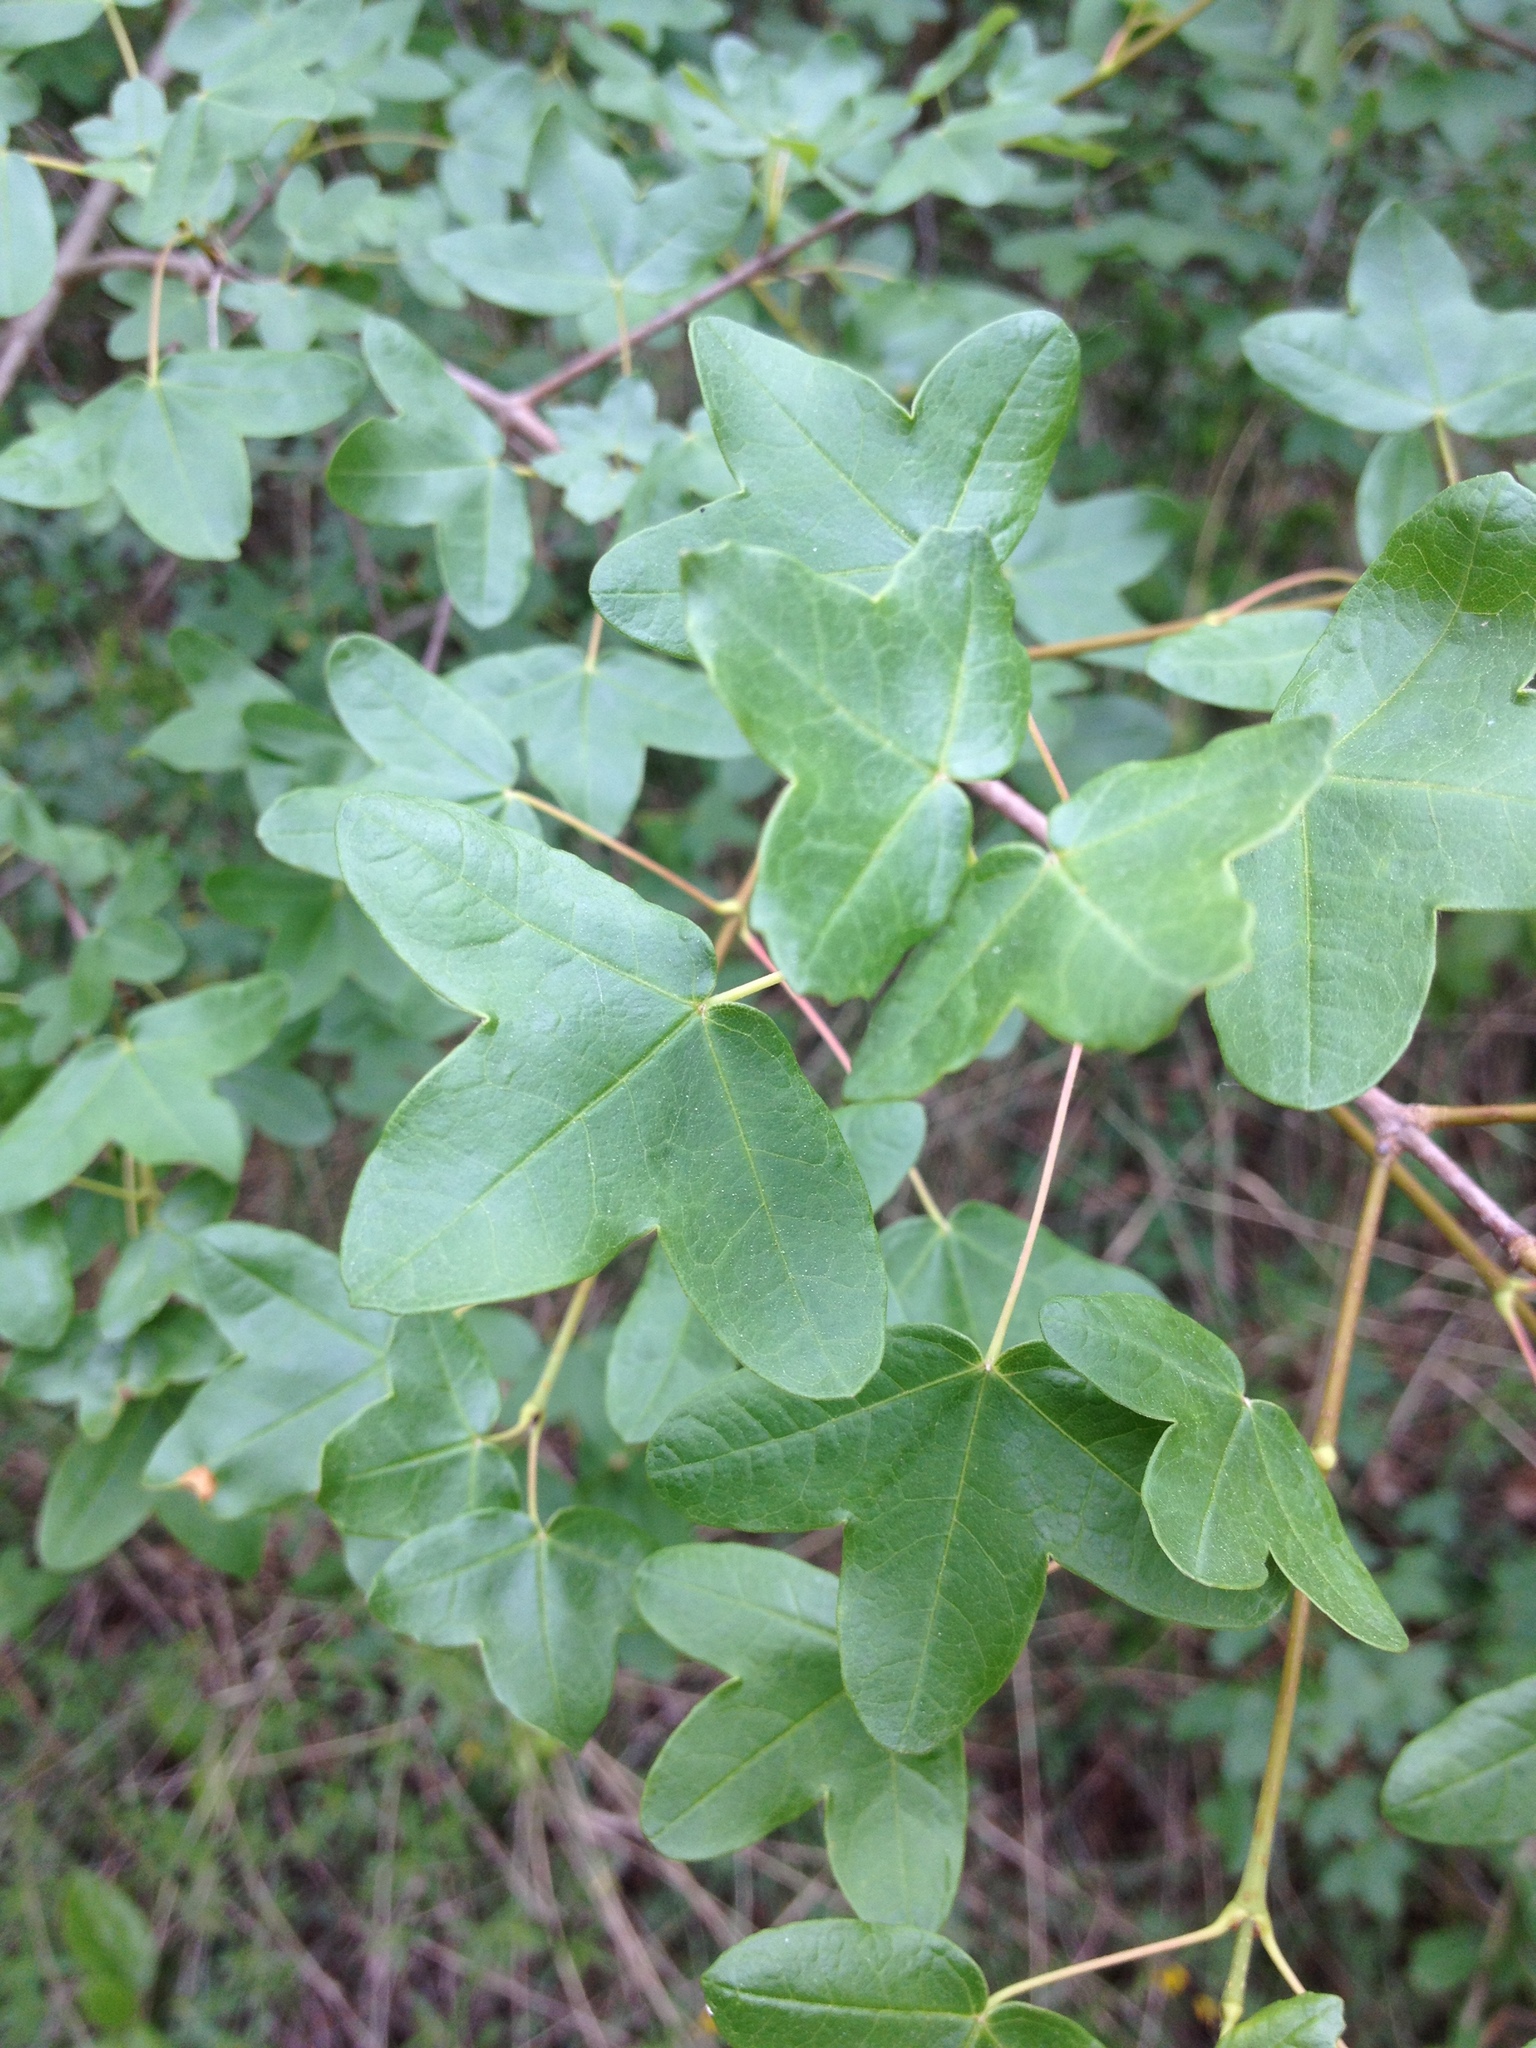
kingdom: Plantae
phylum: Tracheophyta
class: Magnoliopsida
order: Sapindales
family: Sapindaceae
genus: Acer
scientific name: Acer monspessulanum
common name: Montpellier maple
